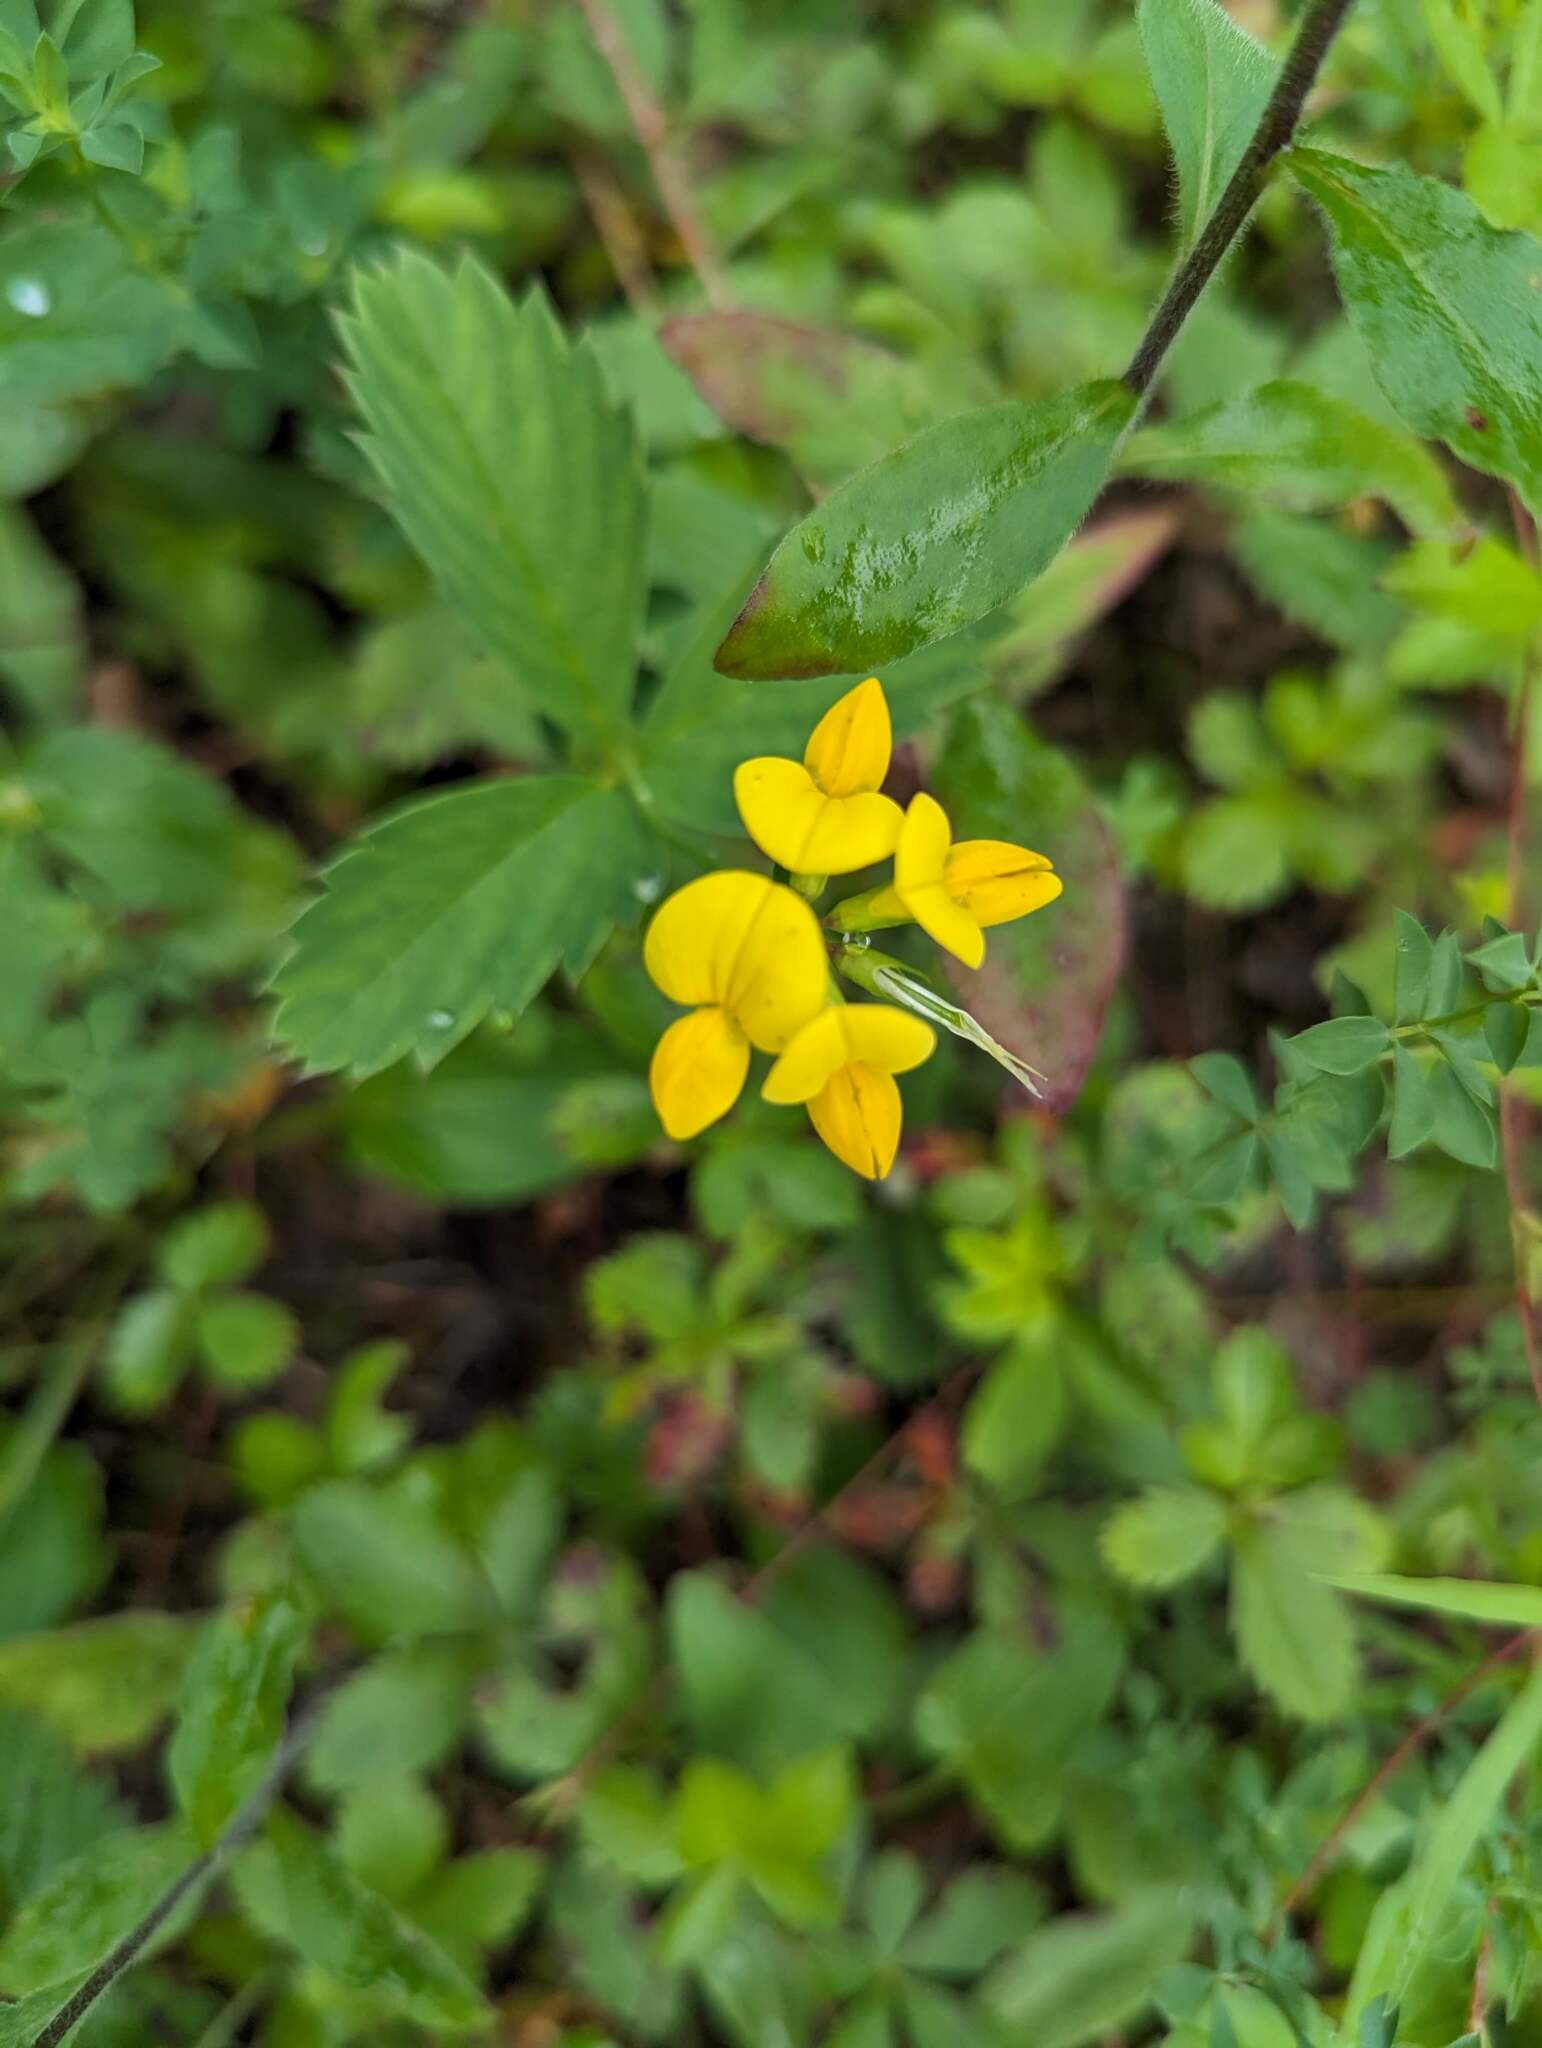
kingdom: Plantae
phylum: Tracheophyta
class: Magnoliopsida
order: Fabales
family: Fabaceae
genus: Lotus
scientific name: Lotus corniculatus
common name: Common bird's-foot-trefoil
